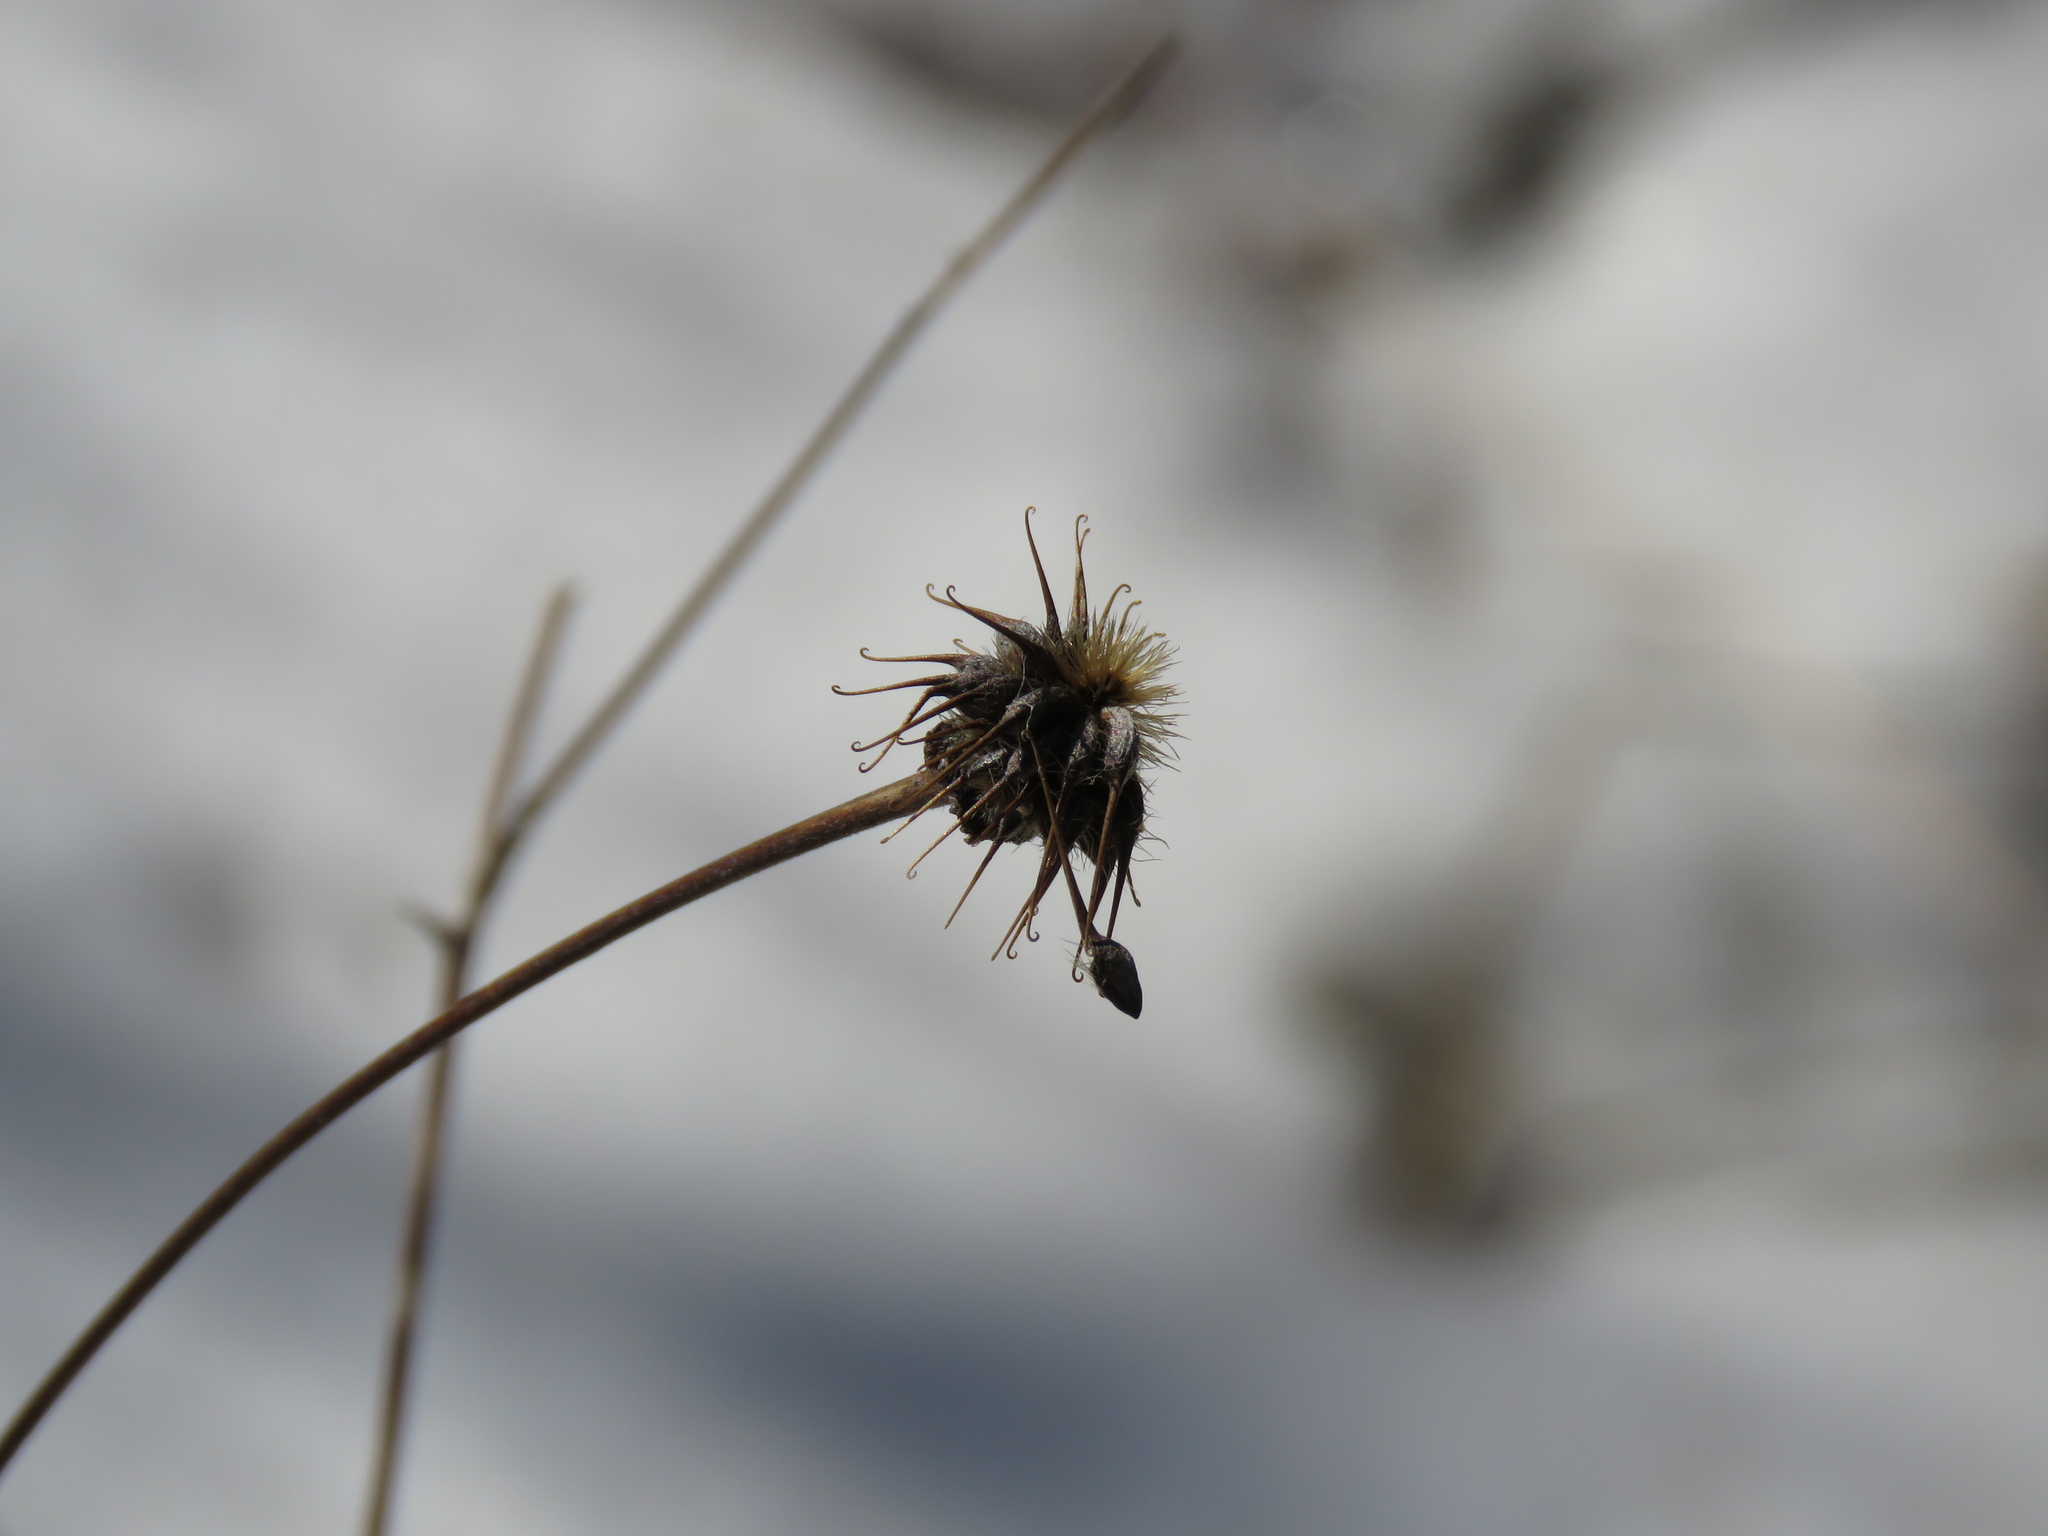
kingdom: Plantae
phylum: Tracheophyta
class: Magnoliopsida
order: Rosales
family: Rosaceae
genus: Geum
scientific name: Geum canadense
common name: White avens
